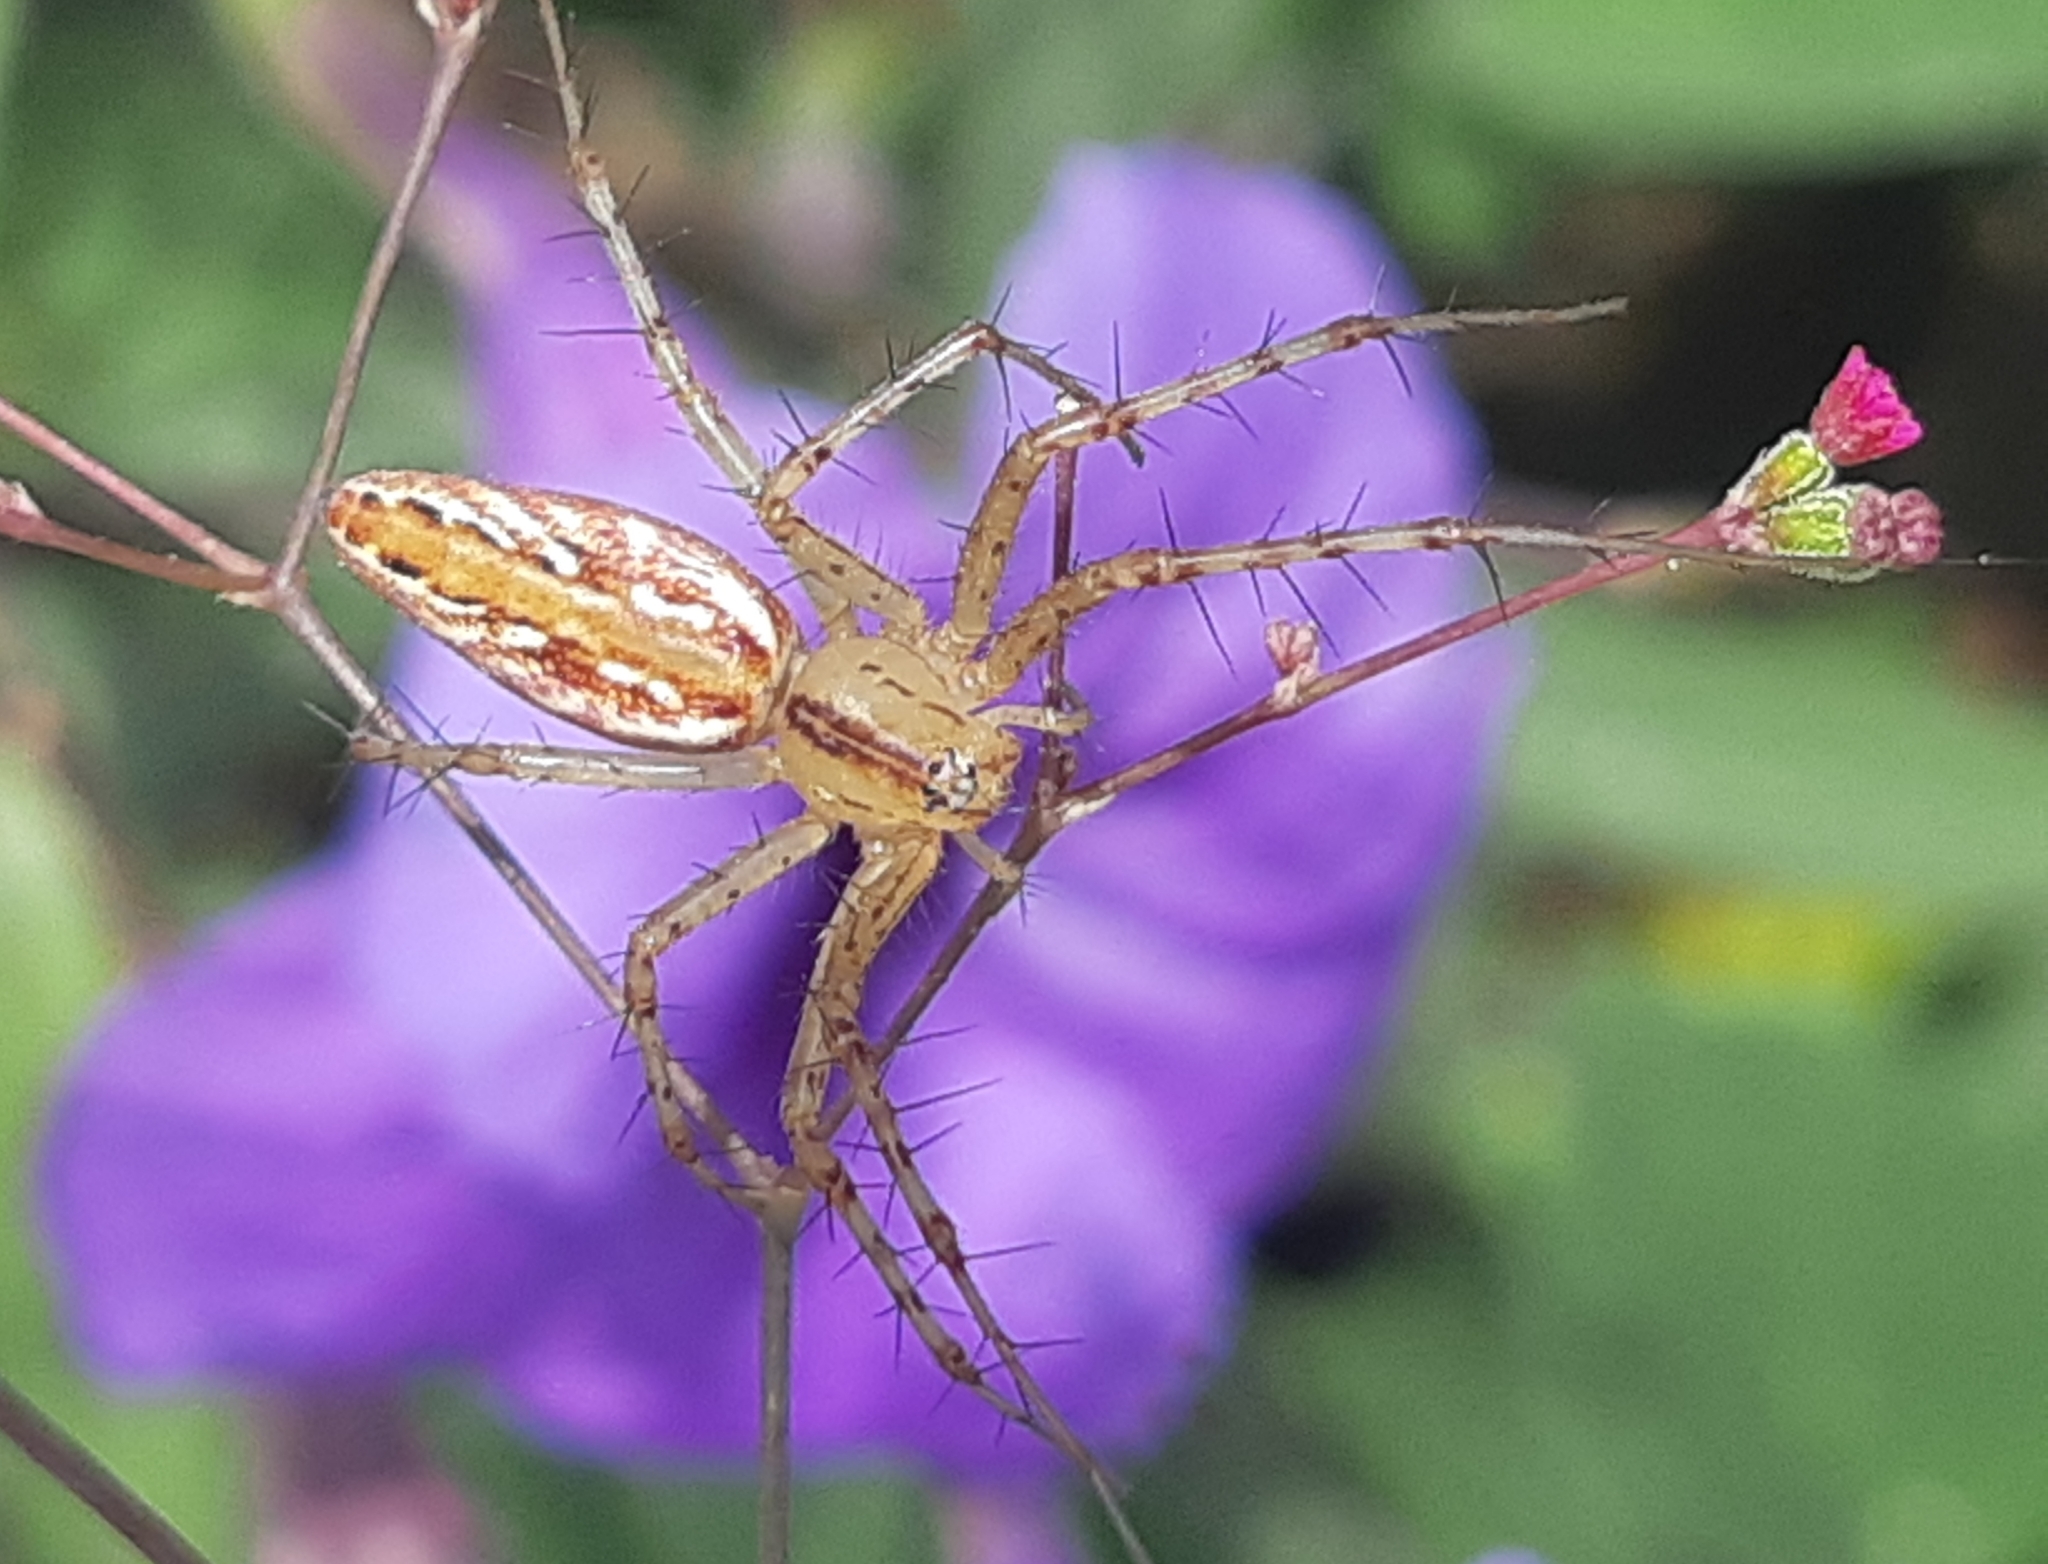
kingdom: Animalia
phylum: Arthropoda
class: Arachnida
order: Araneae
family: Oxyopidae
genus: Peucetia
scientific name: Peucetia rubrolineata
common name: Lynx spiders
